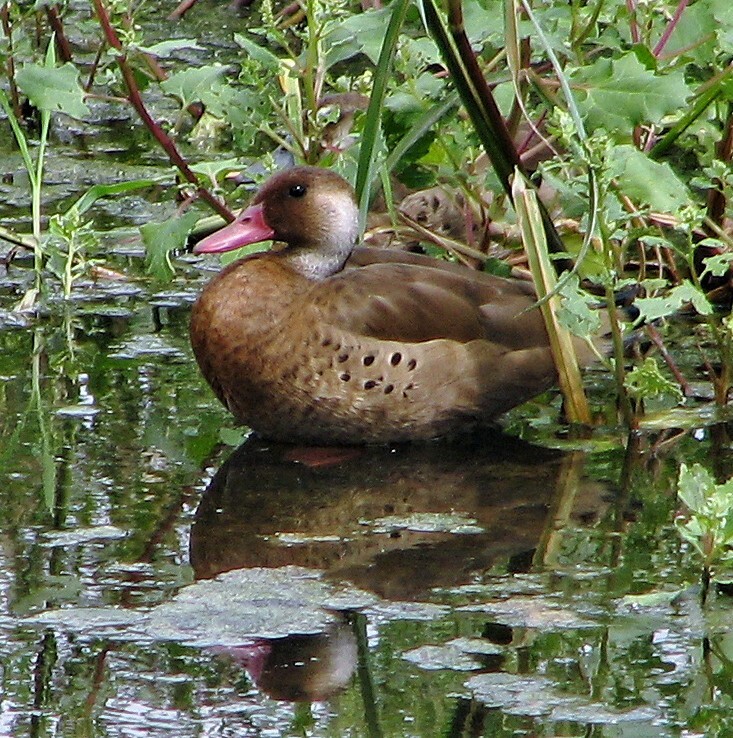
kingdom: Animalia
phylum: Chordata
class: Aves
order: Anseriformes
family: Anatidae
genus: Amazonetta
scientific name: Amazonetta brasiliensis
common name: Brazilian teal
